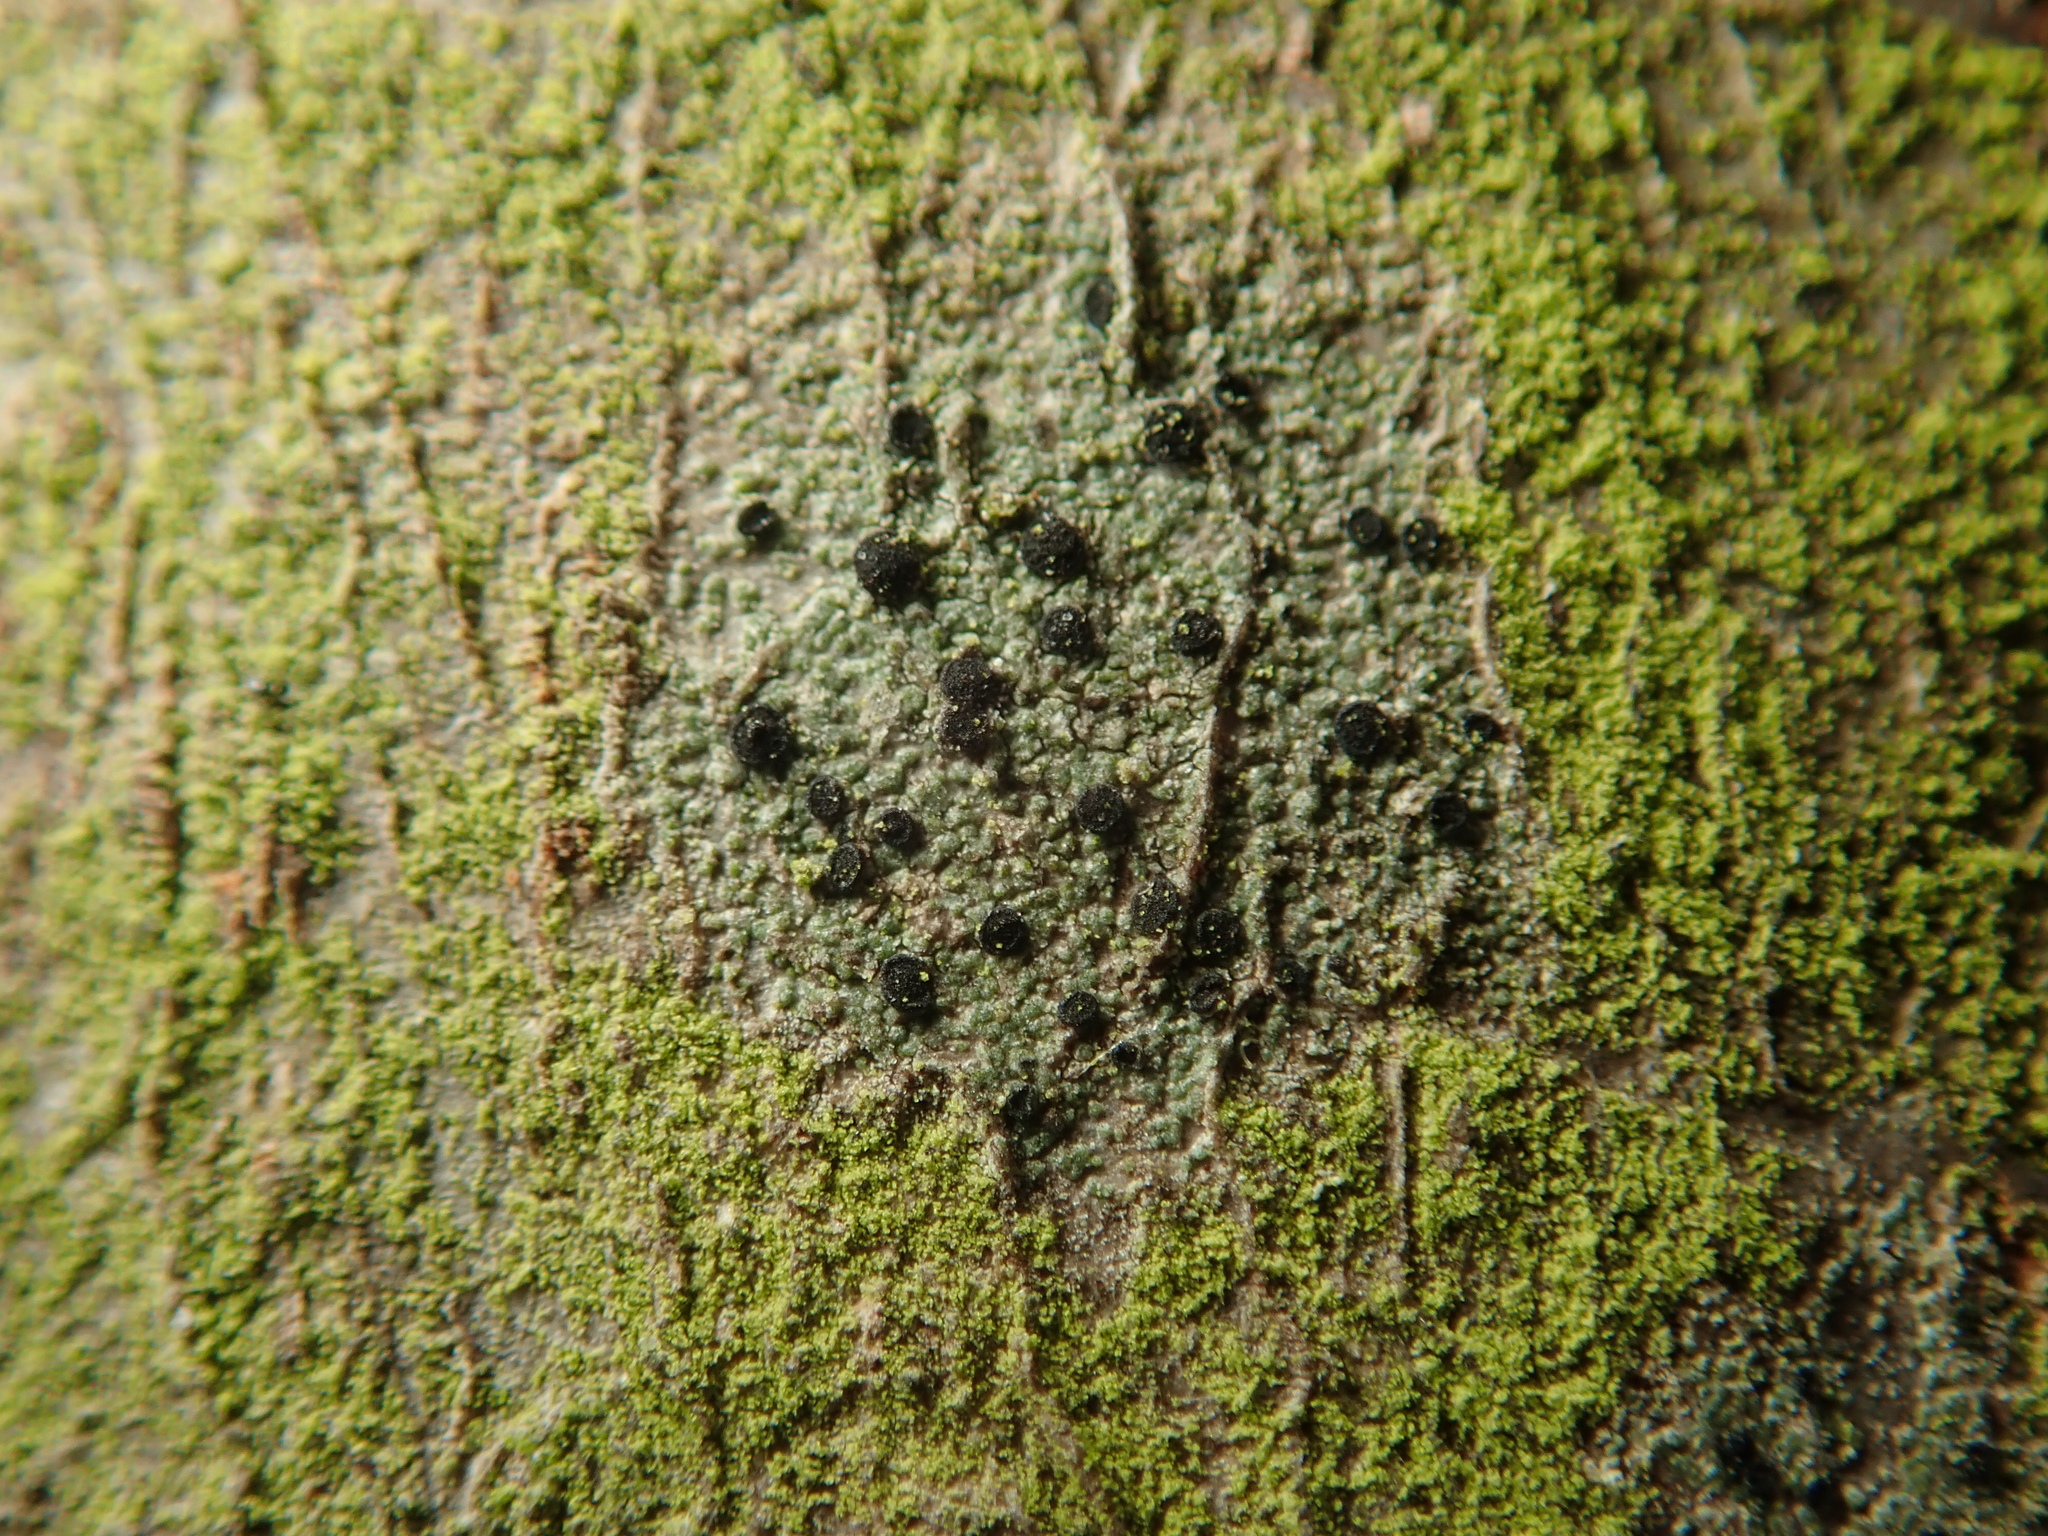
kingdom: Fungi
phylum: Ascomycota
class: Lecanoromycetes
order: Lecanorales
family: Lecanoraceae
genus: Lecidella
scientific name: Lecidella elaeochroma
